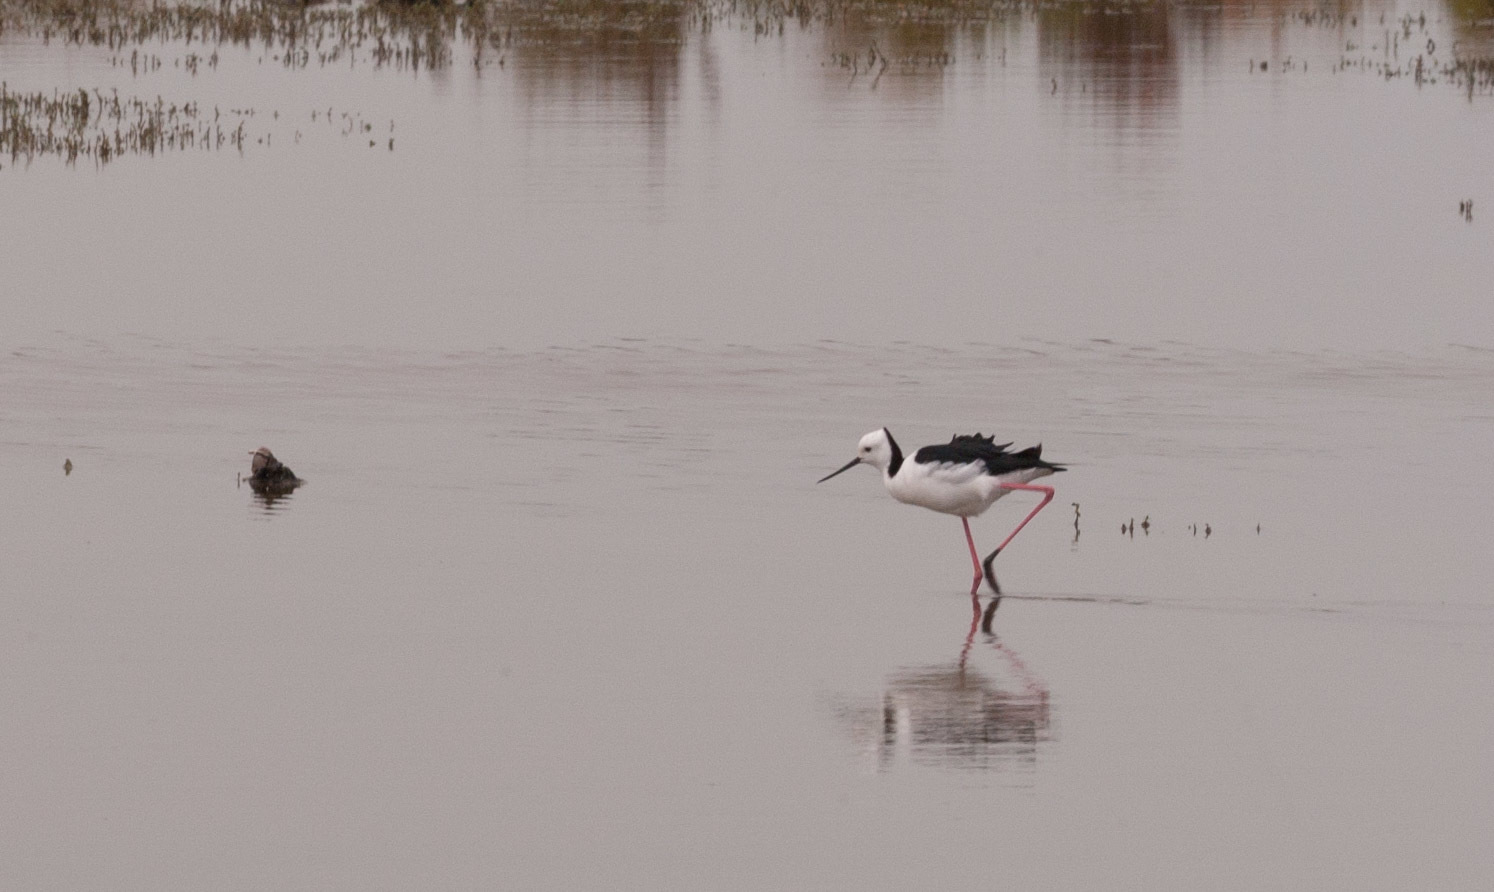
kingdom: Animalia
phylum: Chordata
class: Aves
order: Charadriiformes
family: Recurvirostridae
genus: Himantopus
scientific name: Himantopus leucocephalus
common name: White-headed stilt
